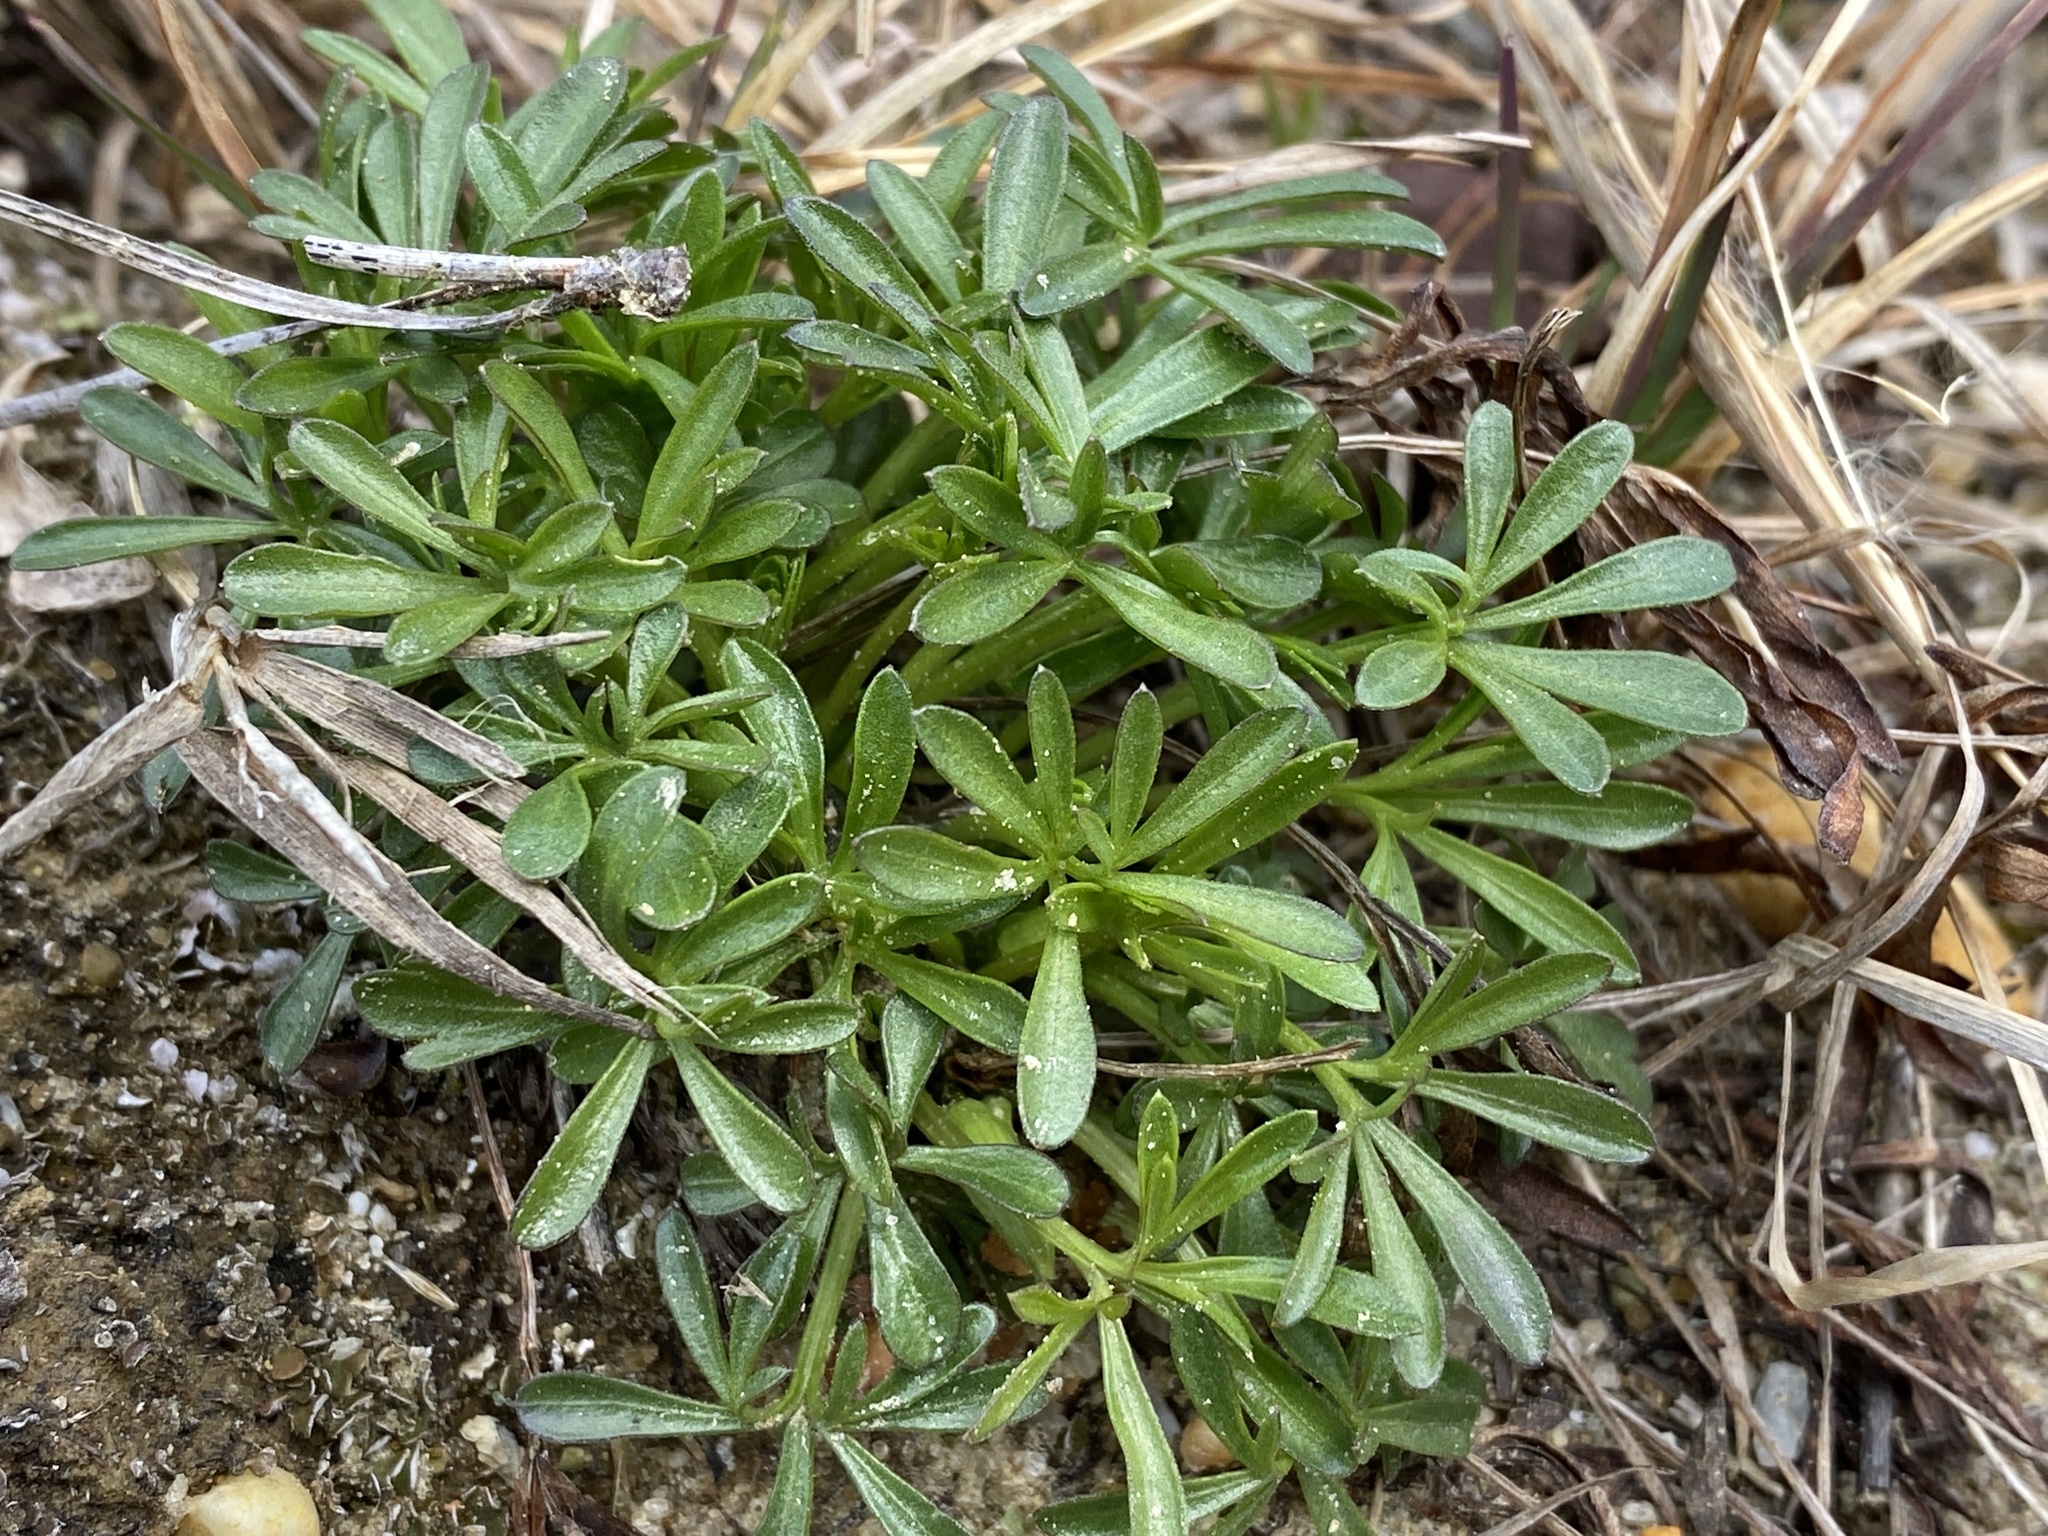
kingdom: Plantae
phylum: Tracheophyta
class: Magnoliopsida
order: Malpighiales
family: Violaceae
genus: Viola
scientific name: Viola pedata
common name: Pansy violet
